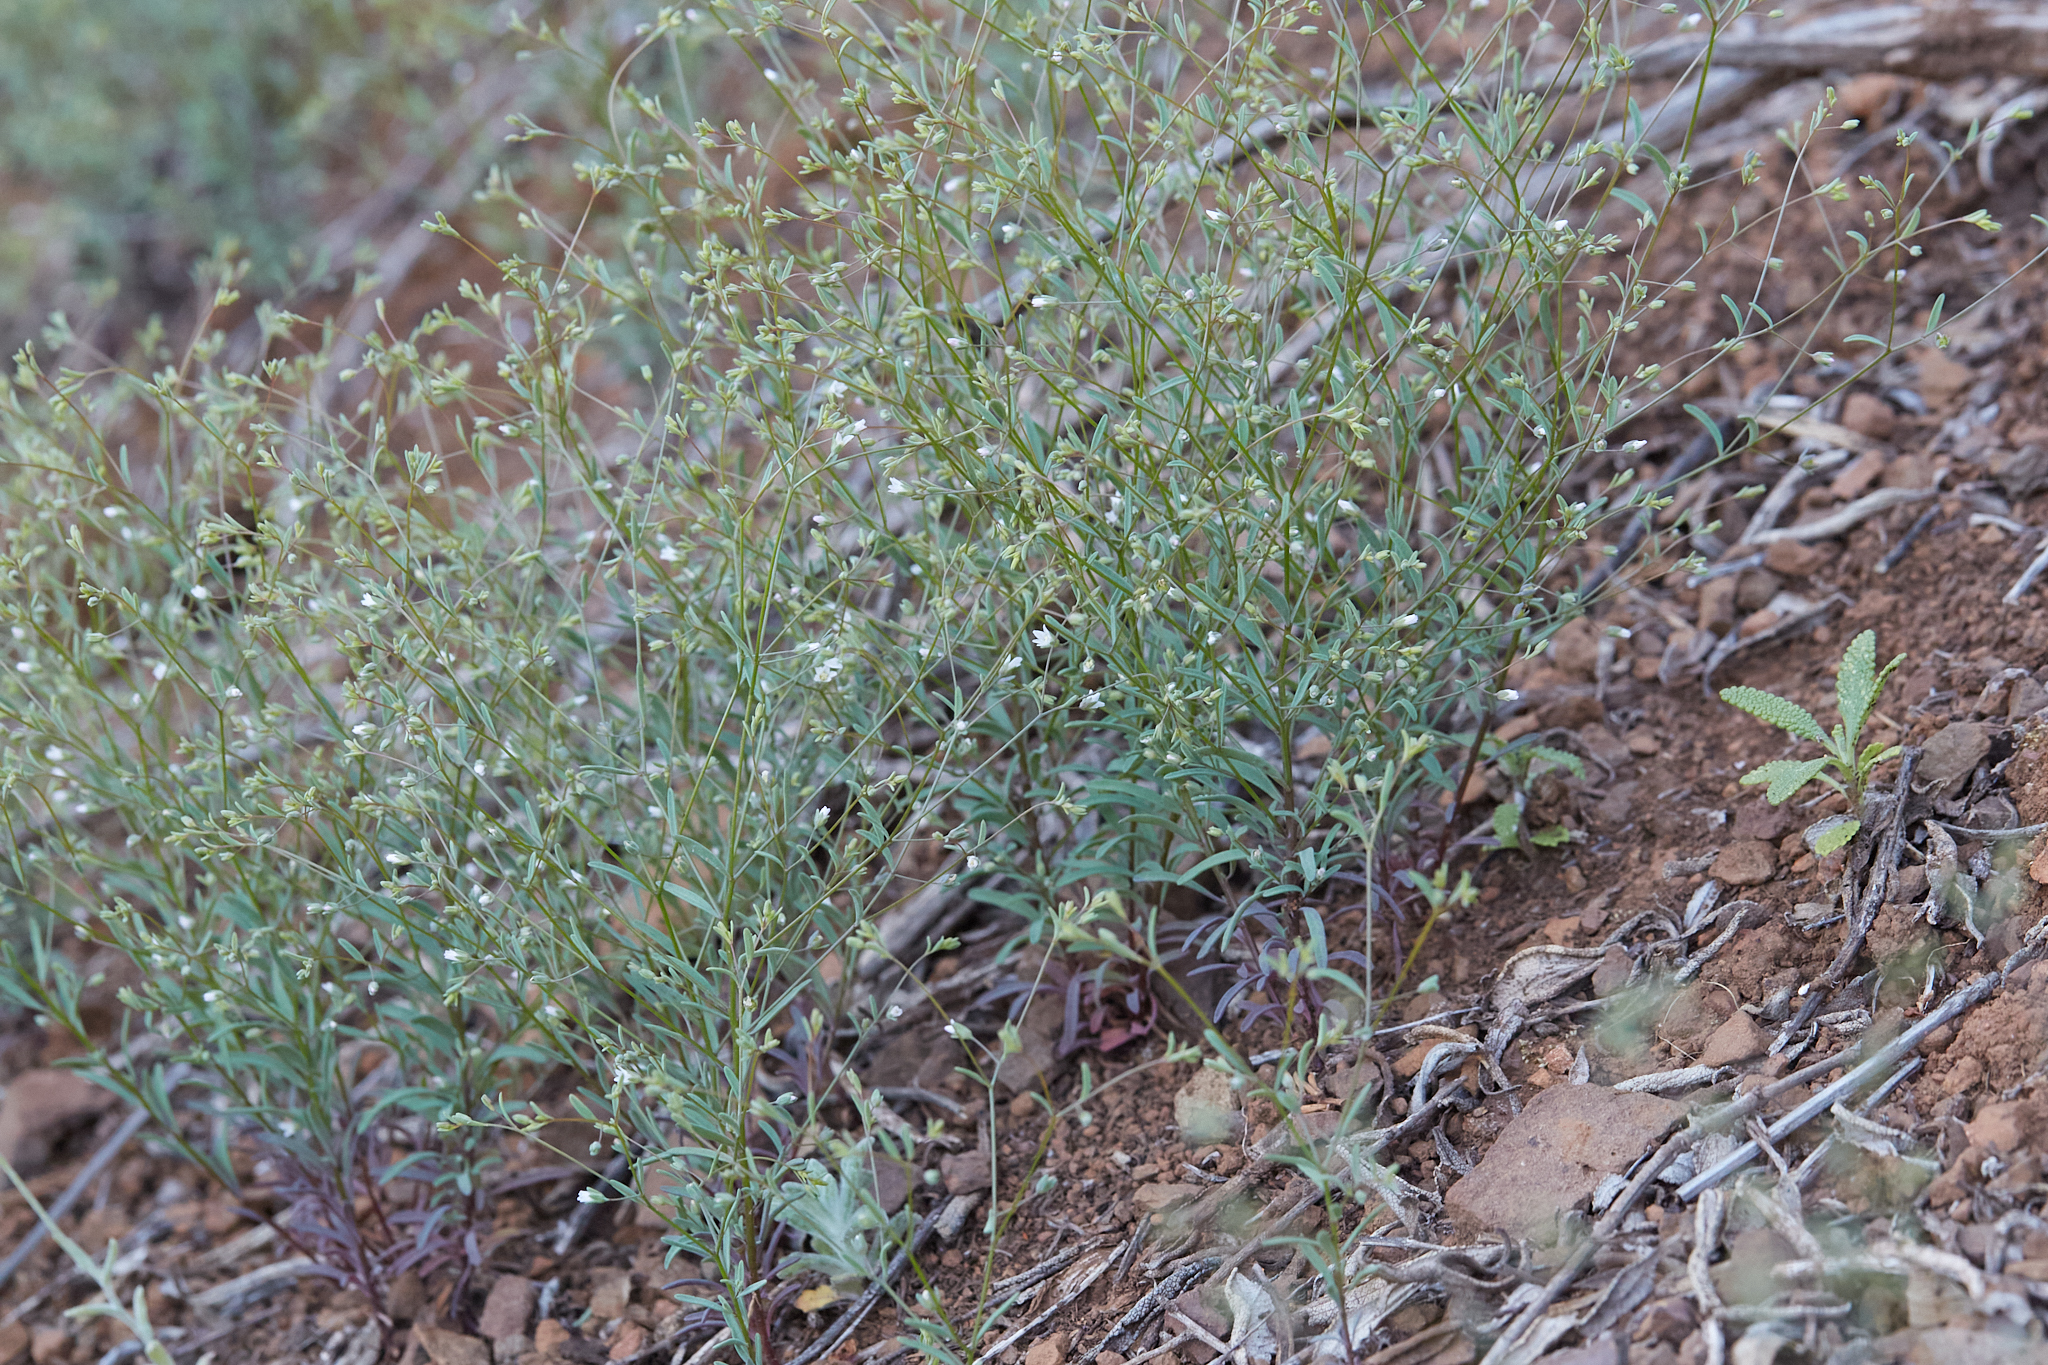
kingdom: Plantae
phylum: Tracheophyta
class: Magnoliopsida
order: Malpighiales
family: Linaceae
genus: Hesperolinon
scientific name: Hesperolinon micranthum
